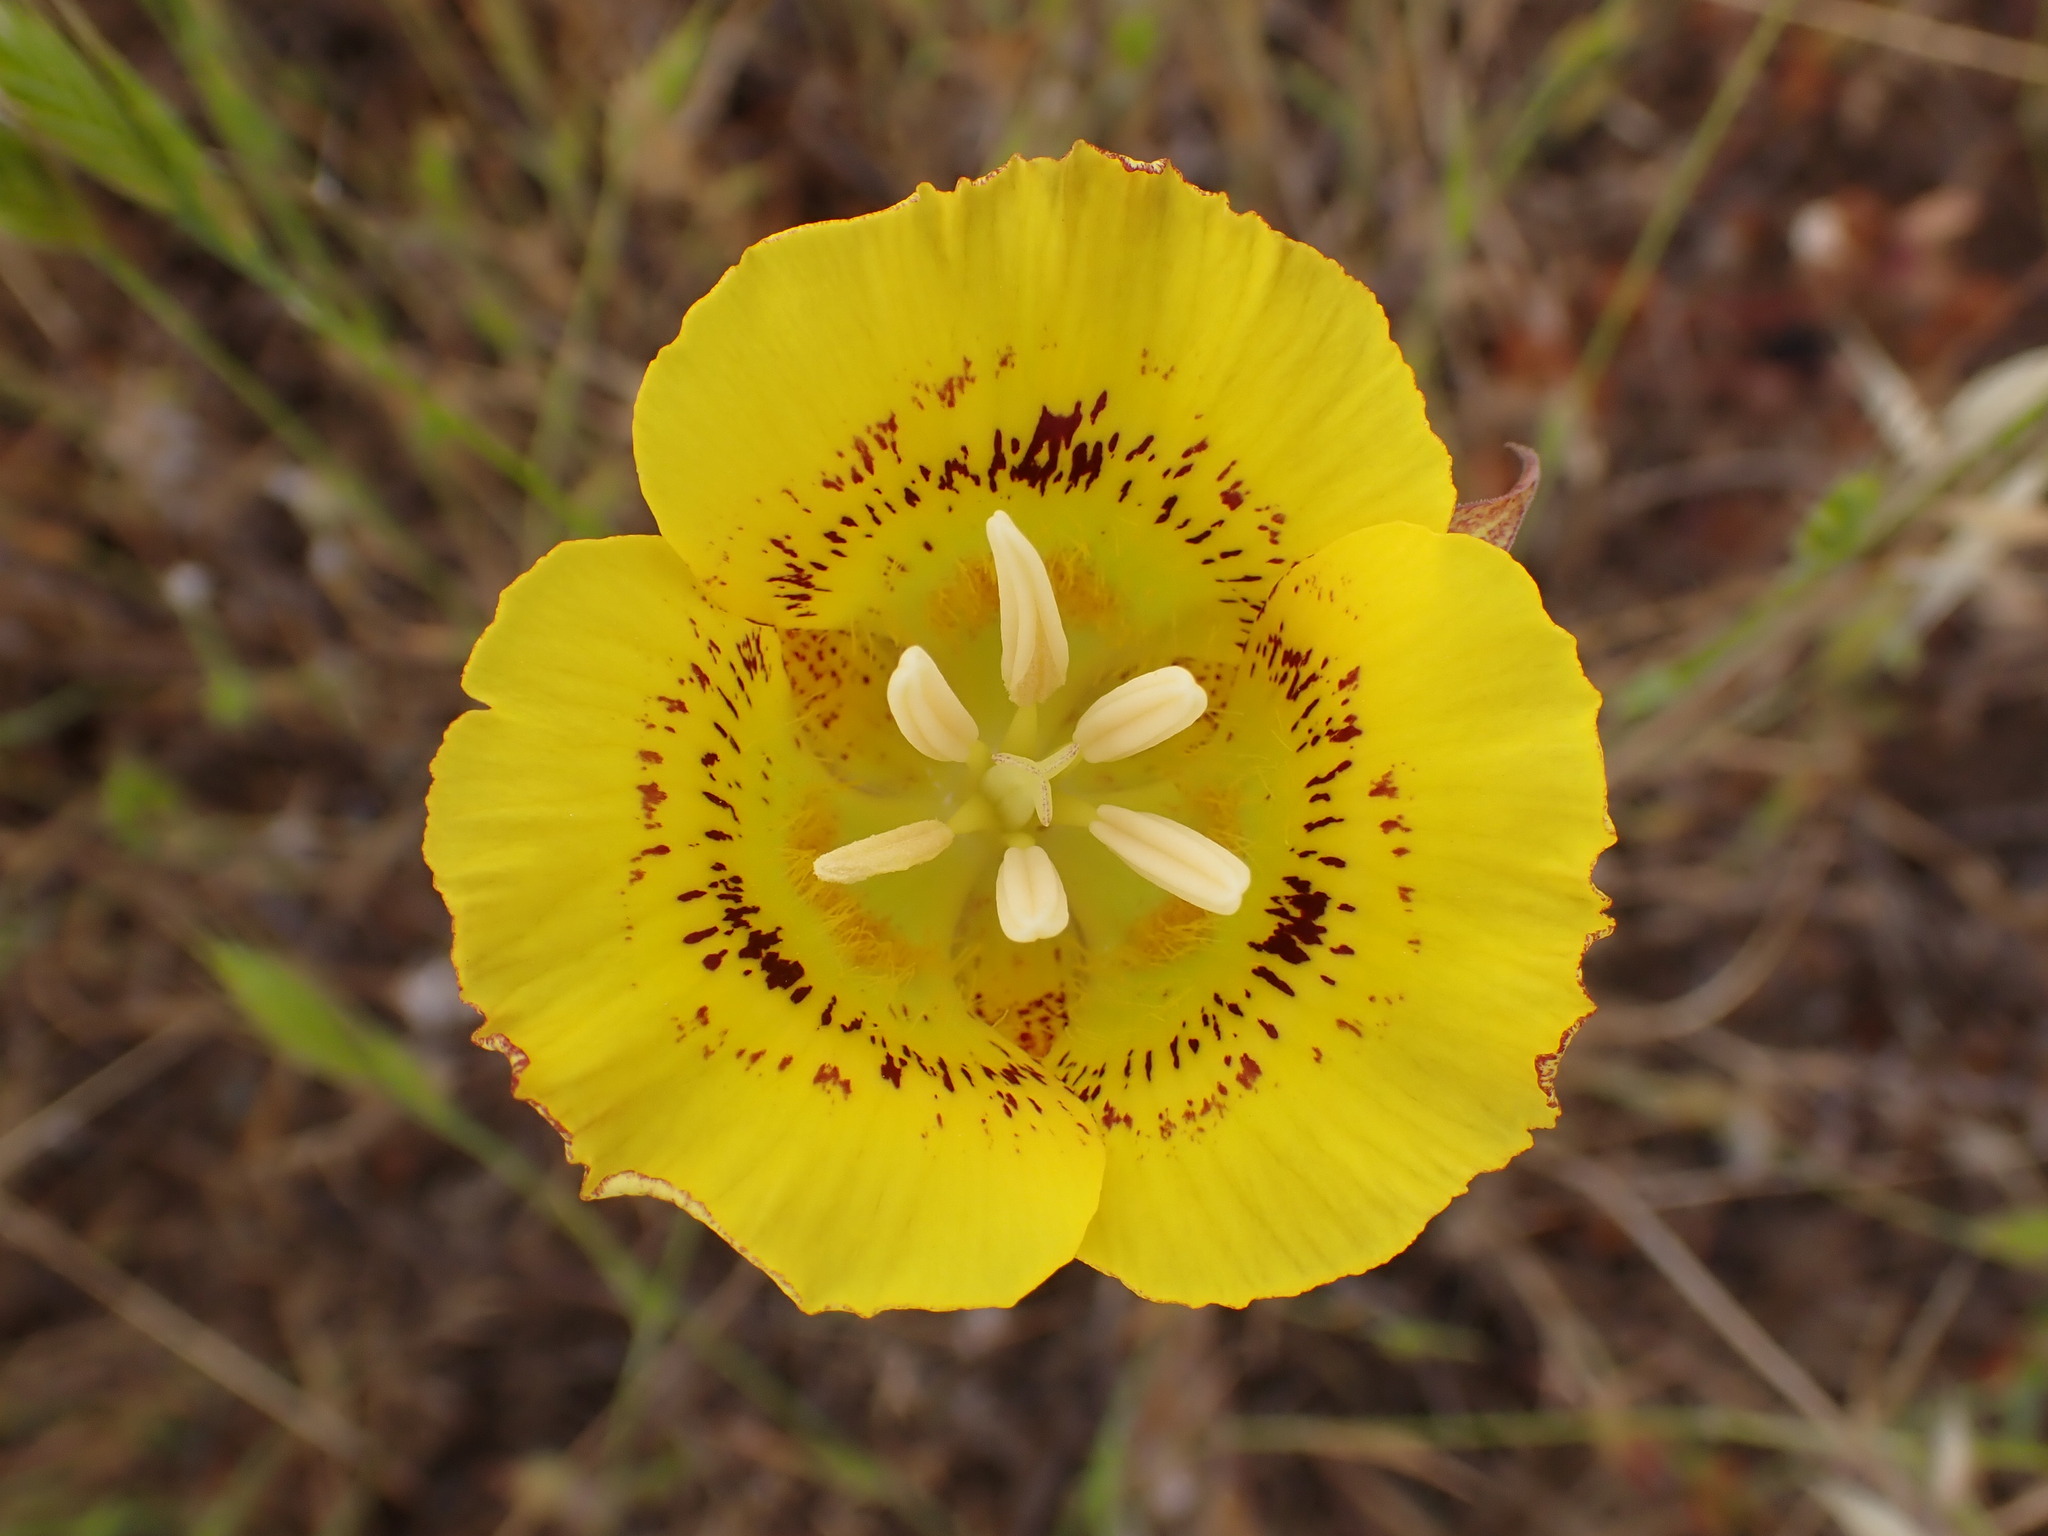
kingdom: Plantae
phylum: Tracheophyta
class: Liliopsida
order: Liliales
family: Liliaceae
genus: Calochortus
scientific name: Calochortus luteus
